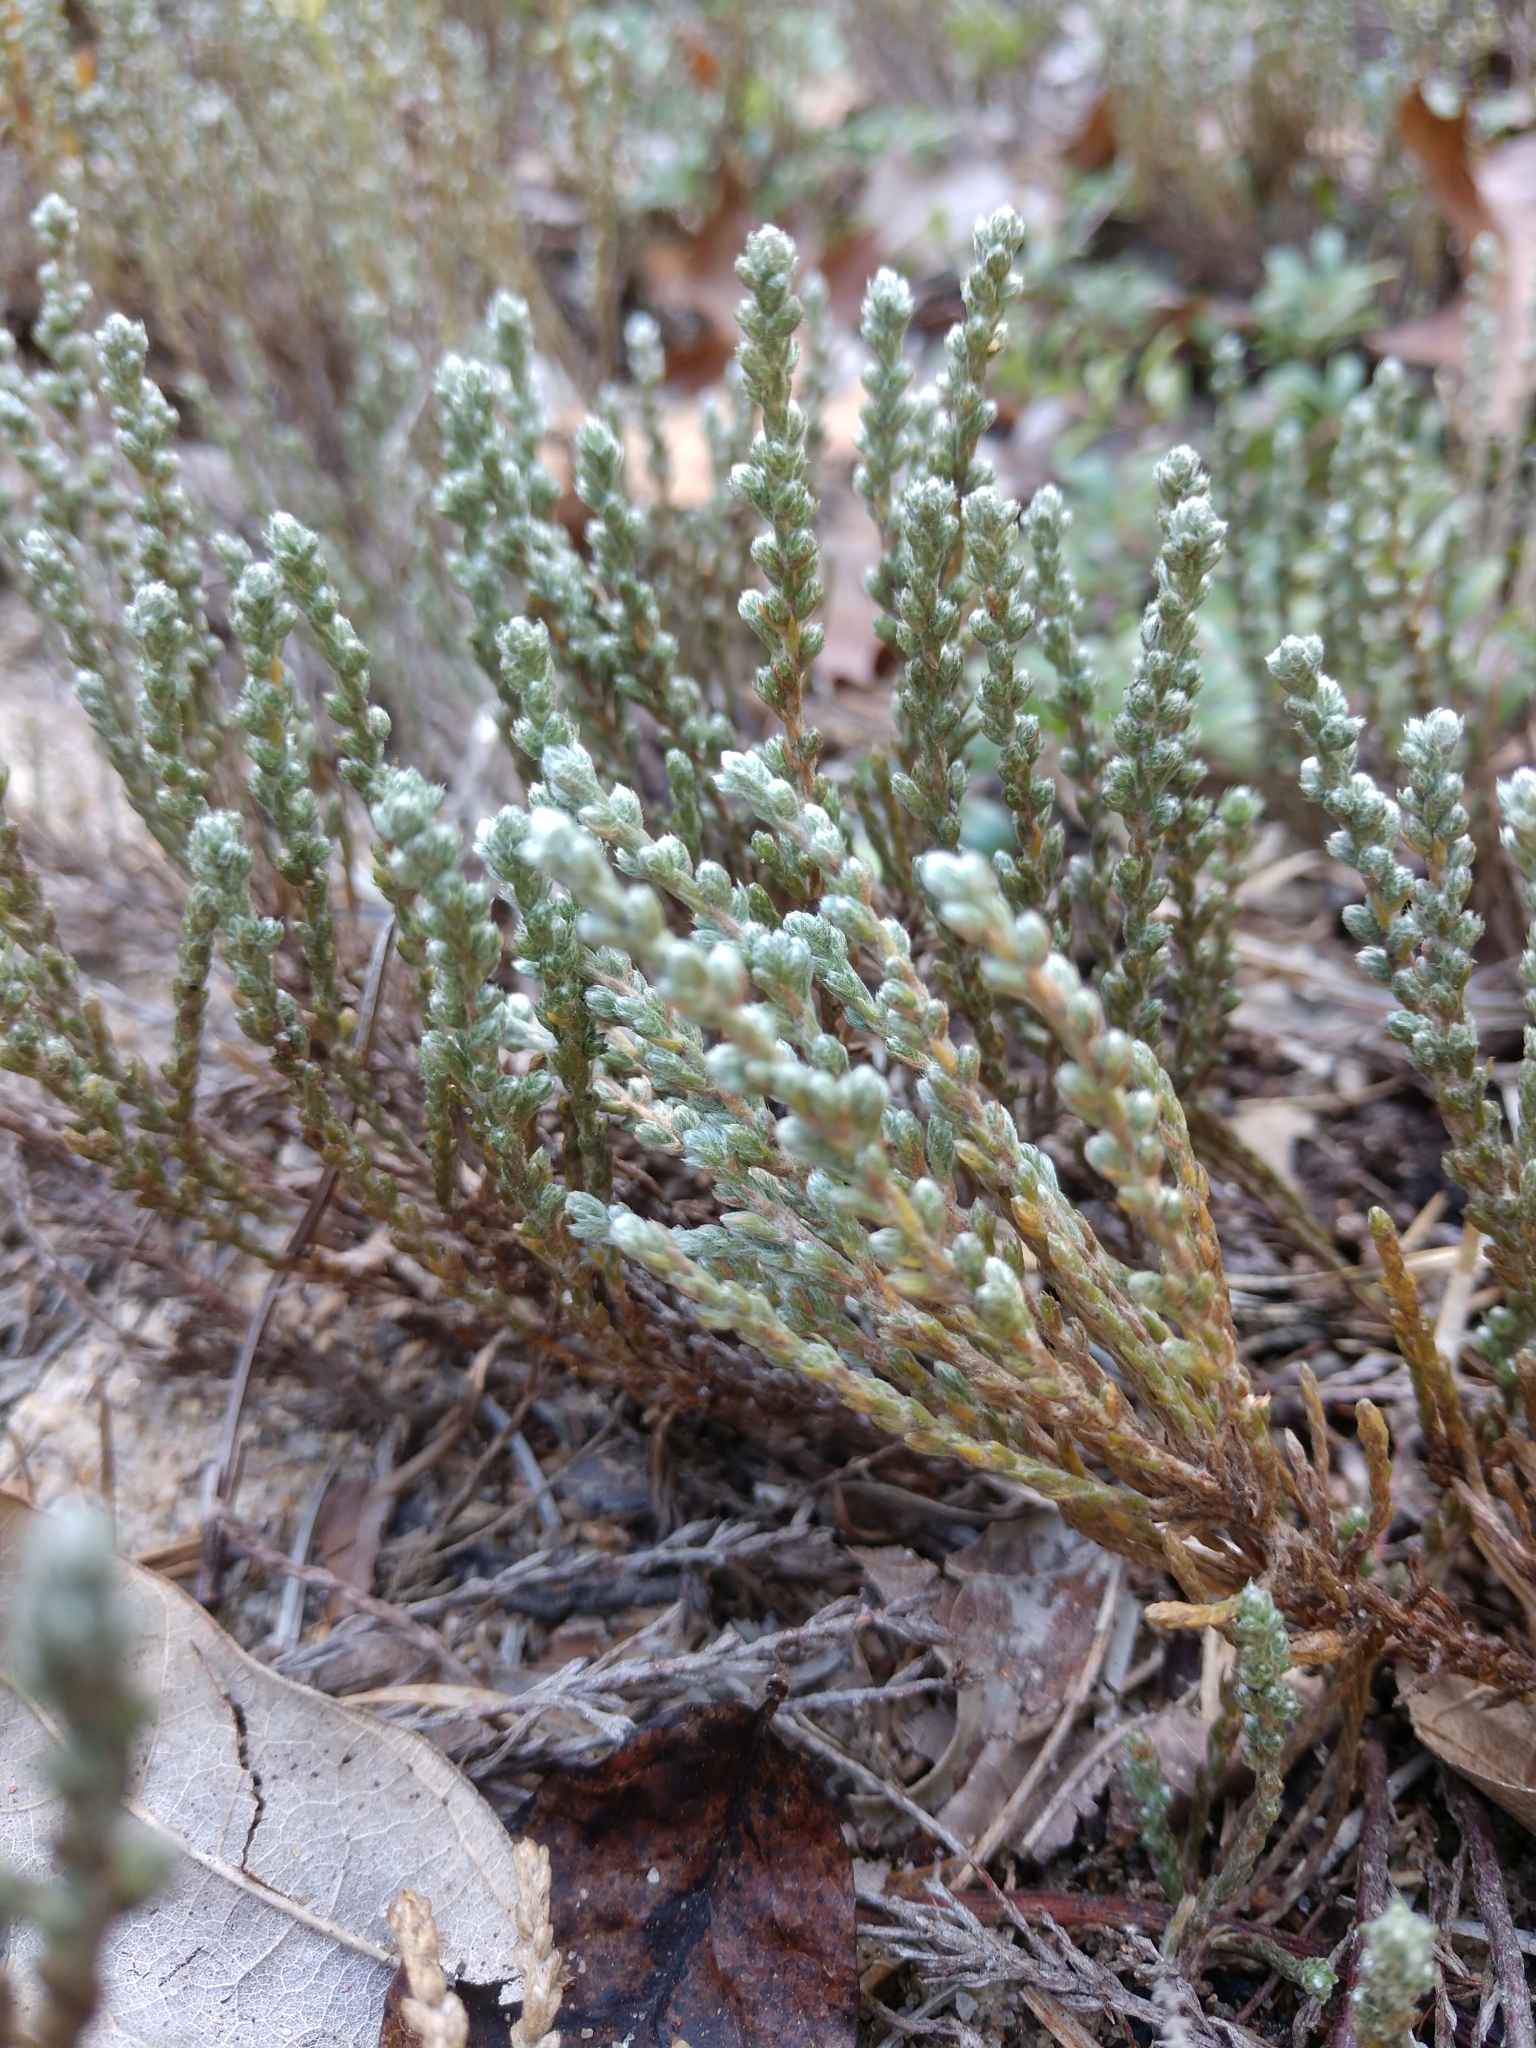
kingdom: Plantae
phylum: Tracheophyta
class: Magnoliopsida
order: Malvales
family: Cistaceae
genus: Hudsonia
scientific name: Hudsonia tomentosa
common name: Beach-heath
